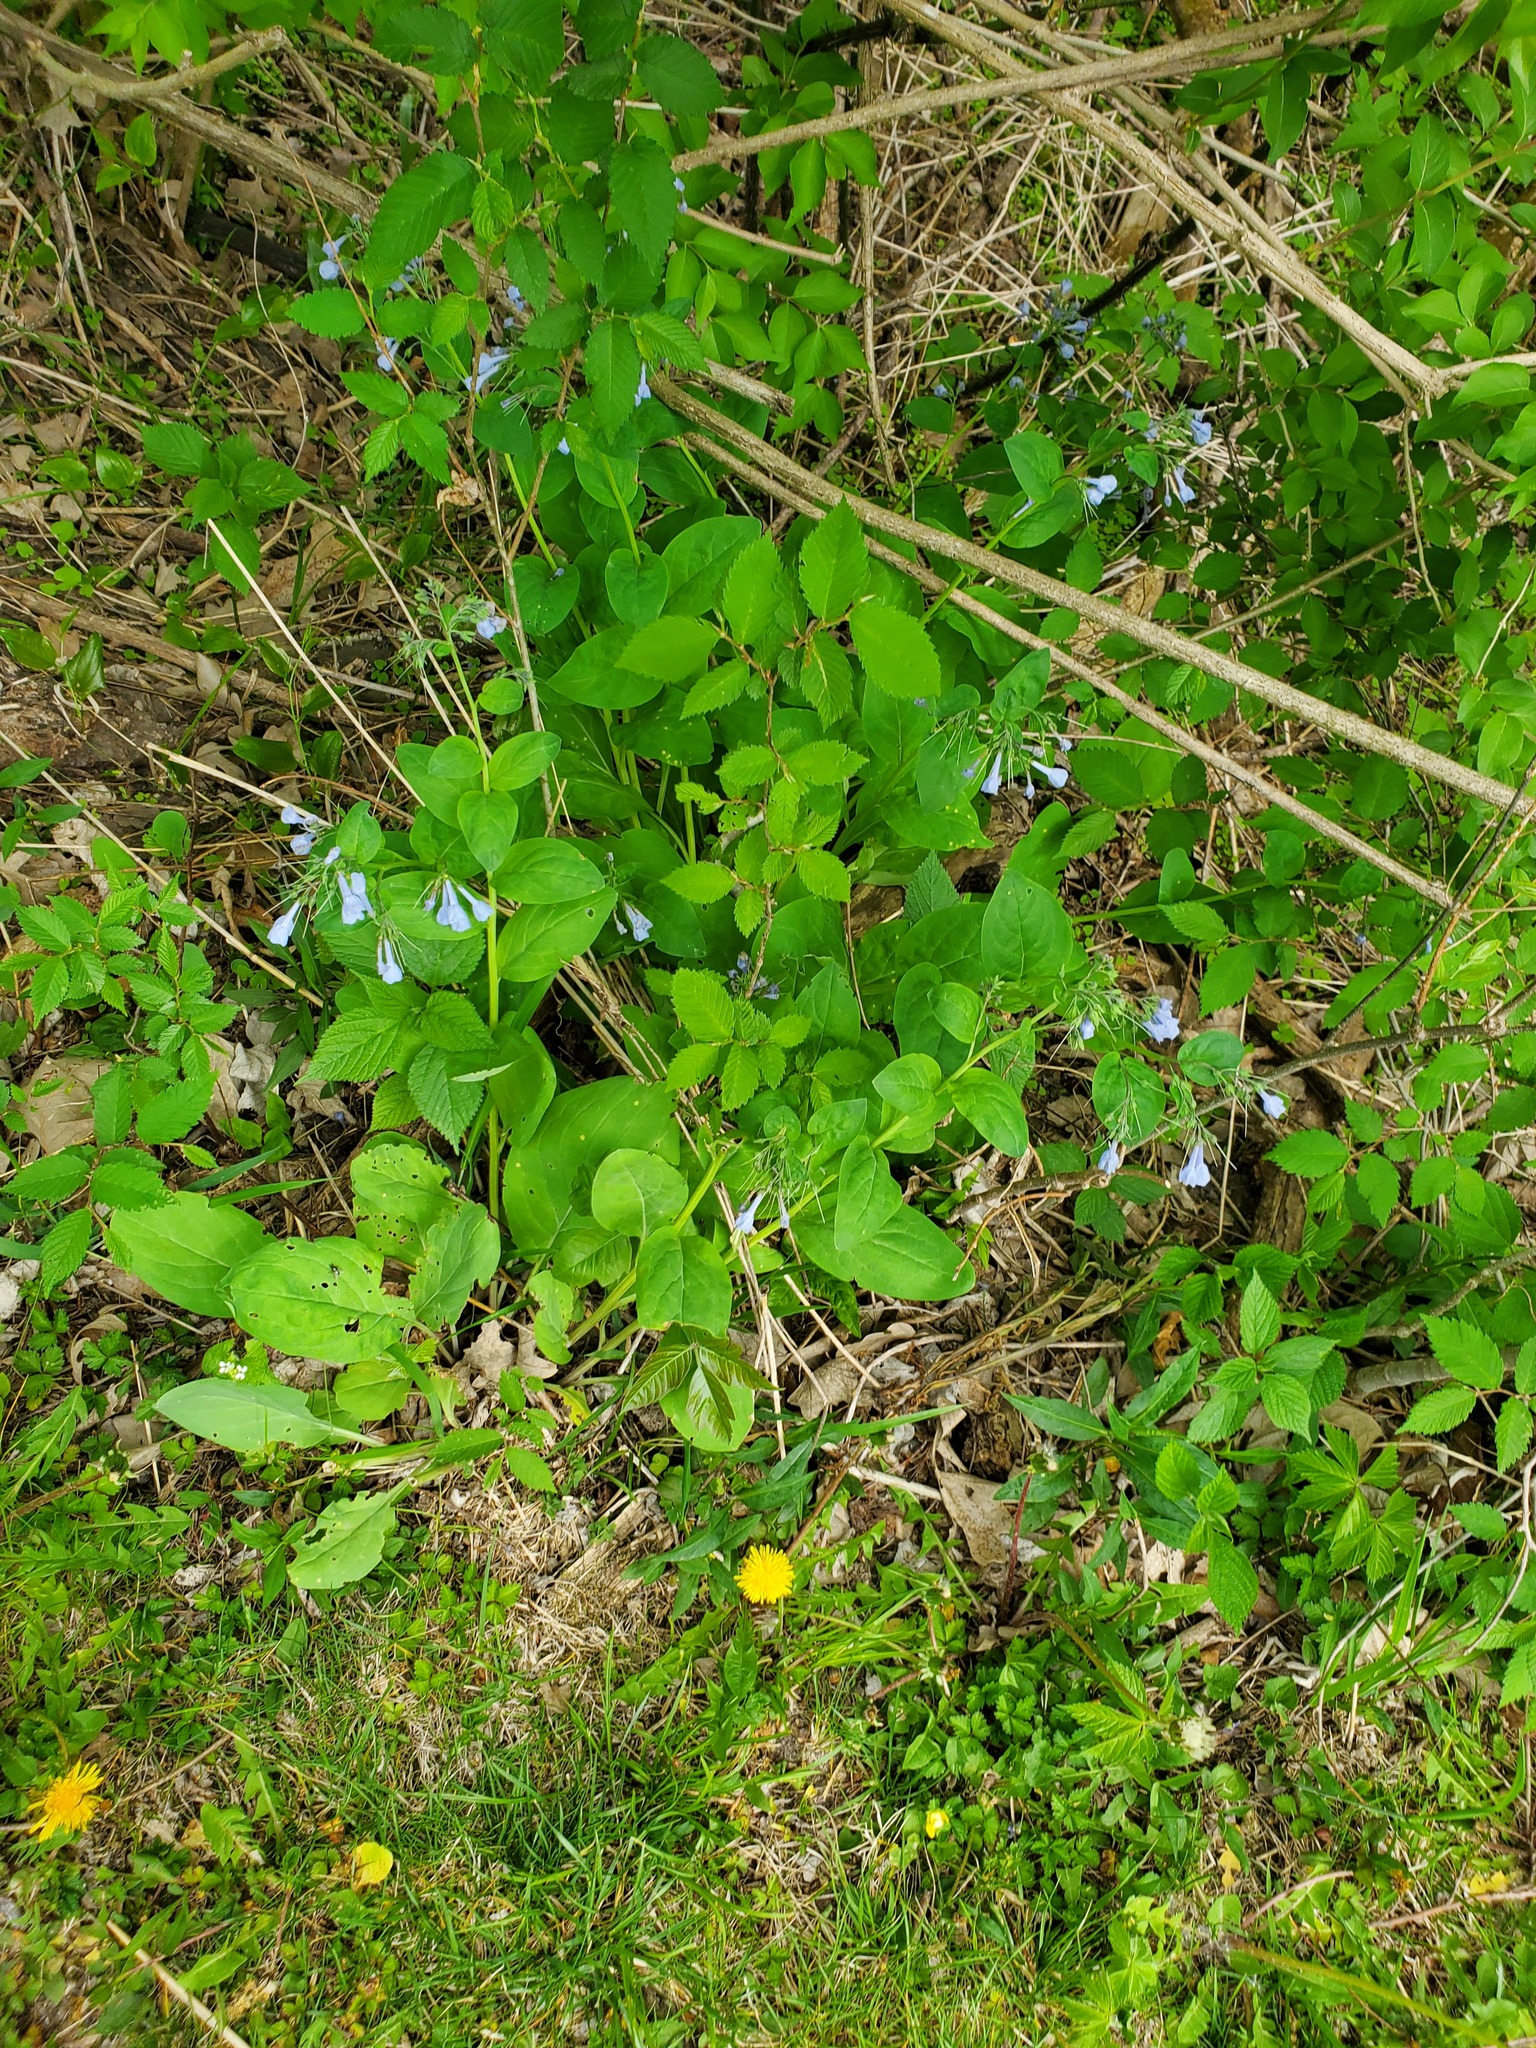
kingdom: Plantae
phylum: Tracheophyta
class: Magnoliopsida
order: Boraginales
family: Boraginaceae
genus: Mertensia
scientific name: Mertensia virginica
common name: Virginia bluebells
